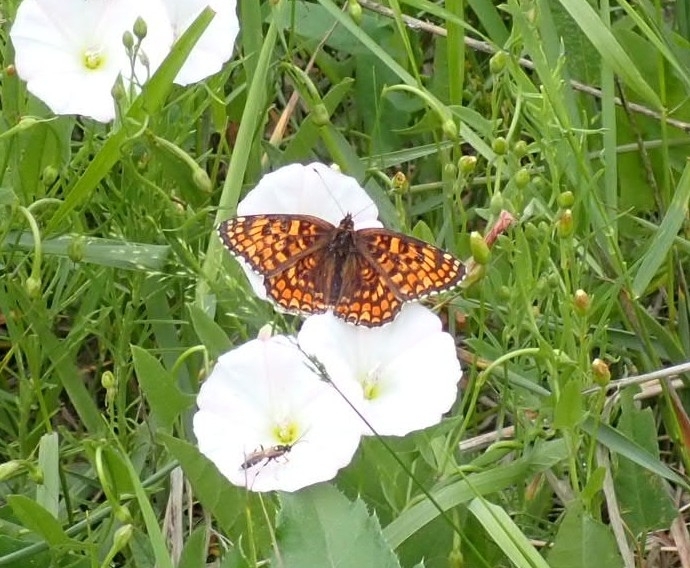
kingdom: Animalia
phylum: Arthropoda
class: Insecta
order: Lepidoptera
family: Nymphalidae
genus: Melitaea
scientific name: Melitaea phoebe
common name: Knapweed fritillary
